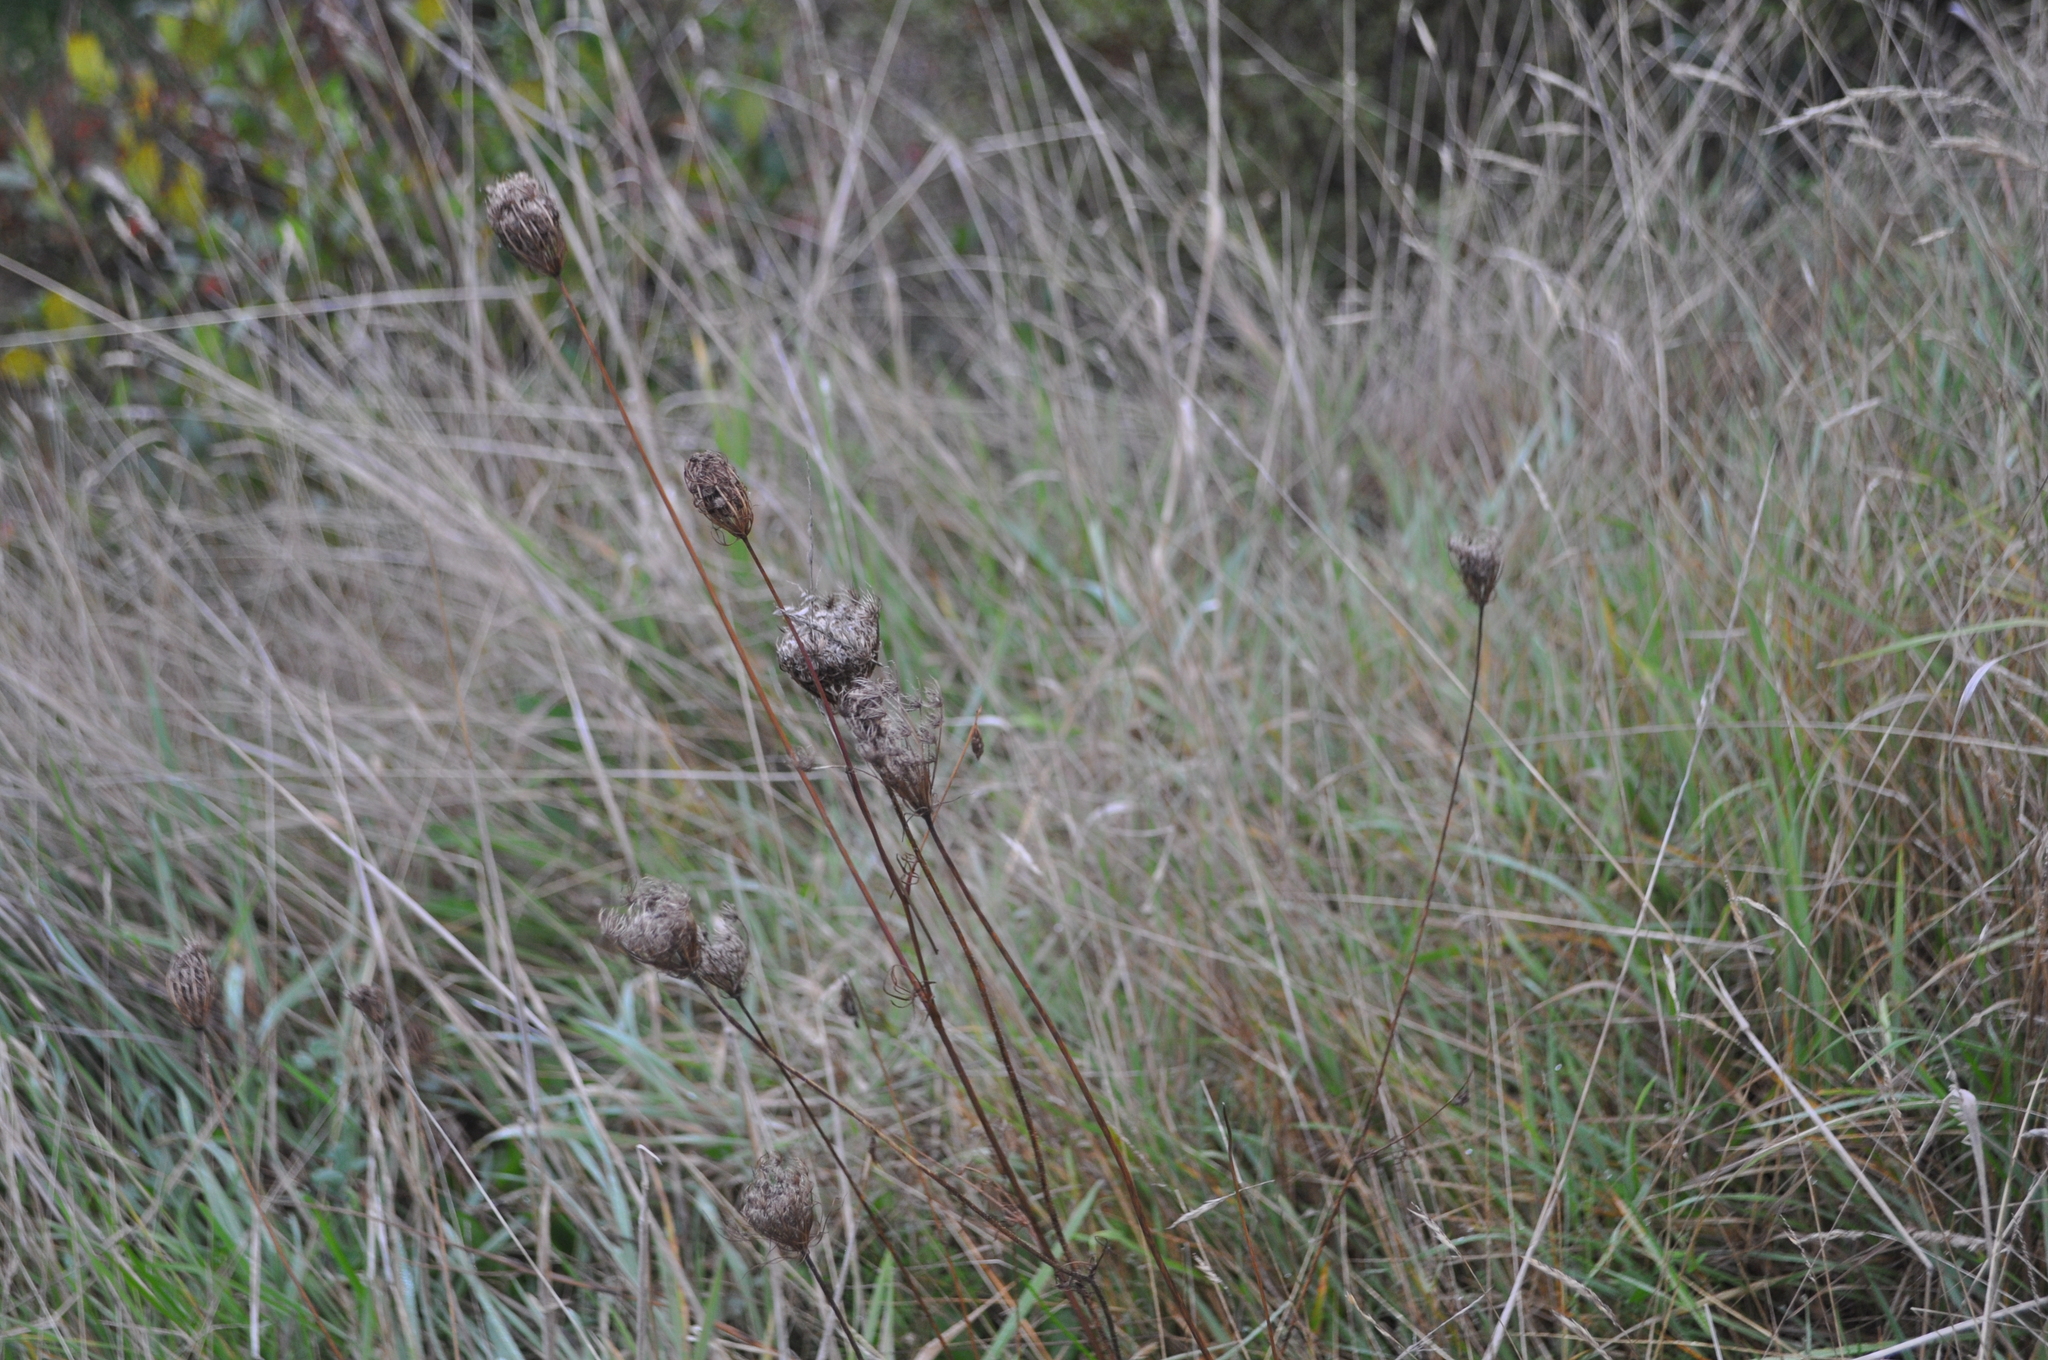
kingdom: Plantae
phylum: Tracheophyta
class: Magnoliopsida
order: Apiales
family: Apiaceae
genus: Daucus
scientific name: Daucus carota
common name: Wild carrot
